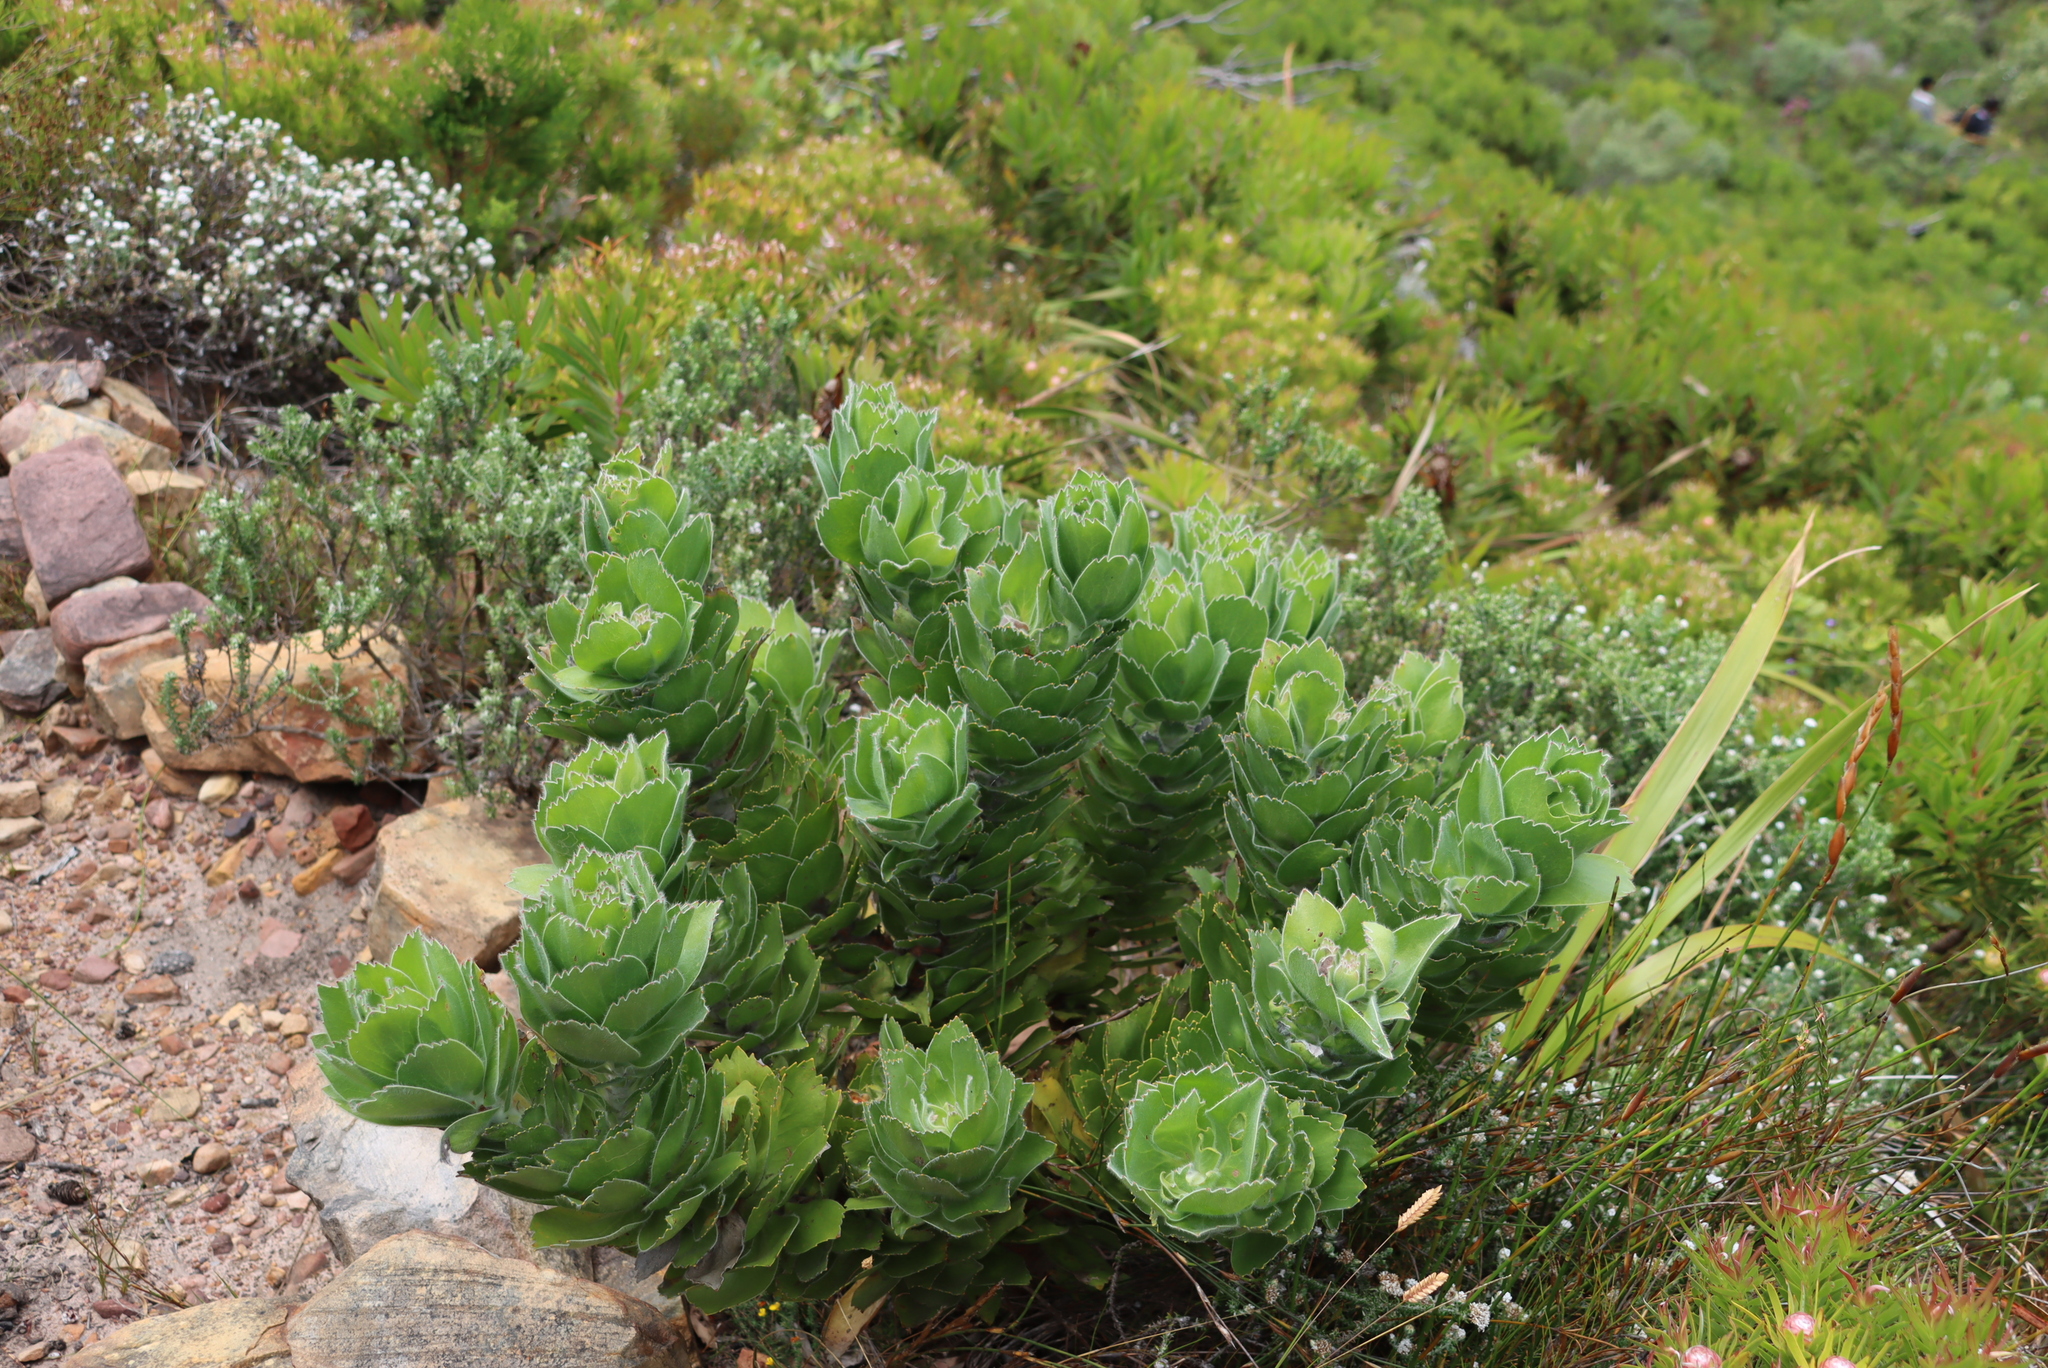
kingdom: Plantae
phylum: Tracheophyta
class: Magnoliopsida
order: Proteales
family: Proteaceae
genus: Leucospermum
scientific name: Leucospermum conocarpodendron
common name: Tree pincushion
